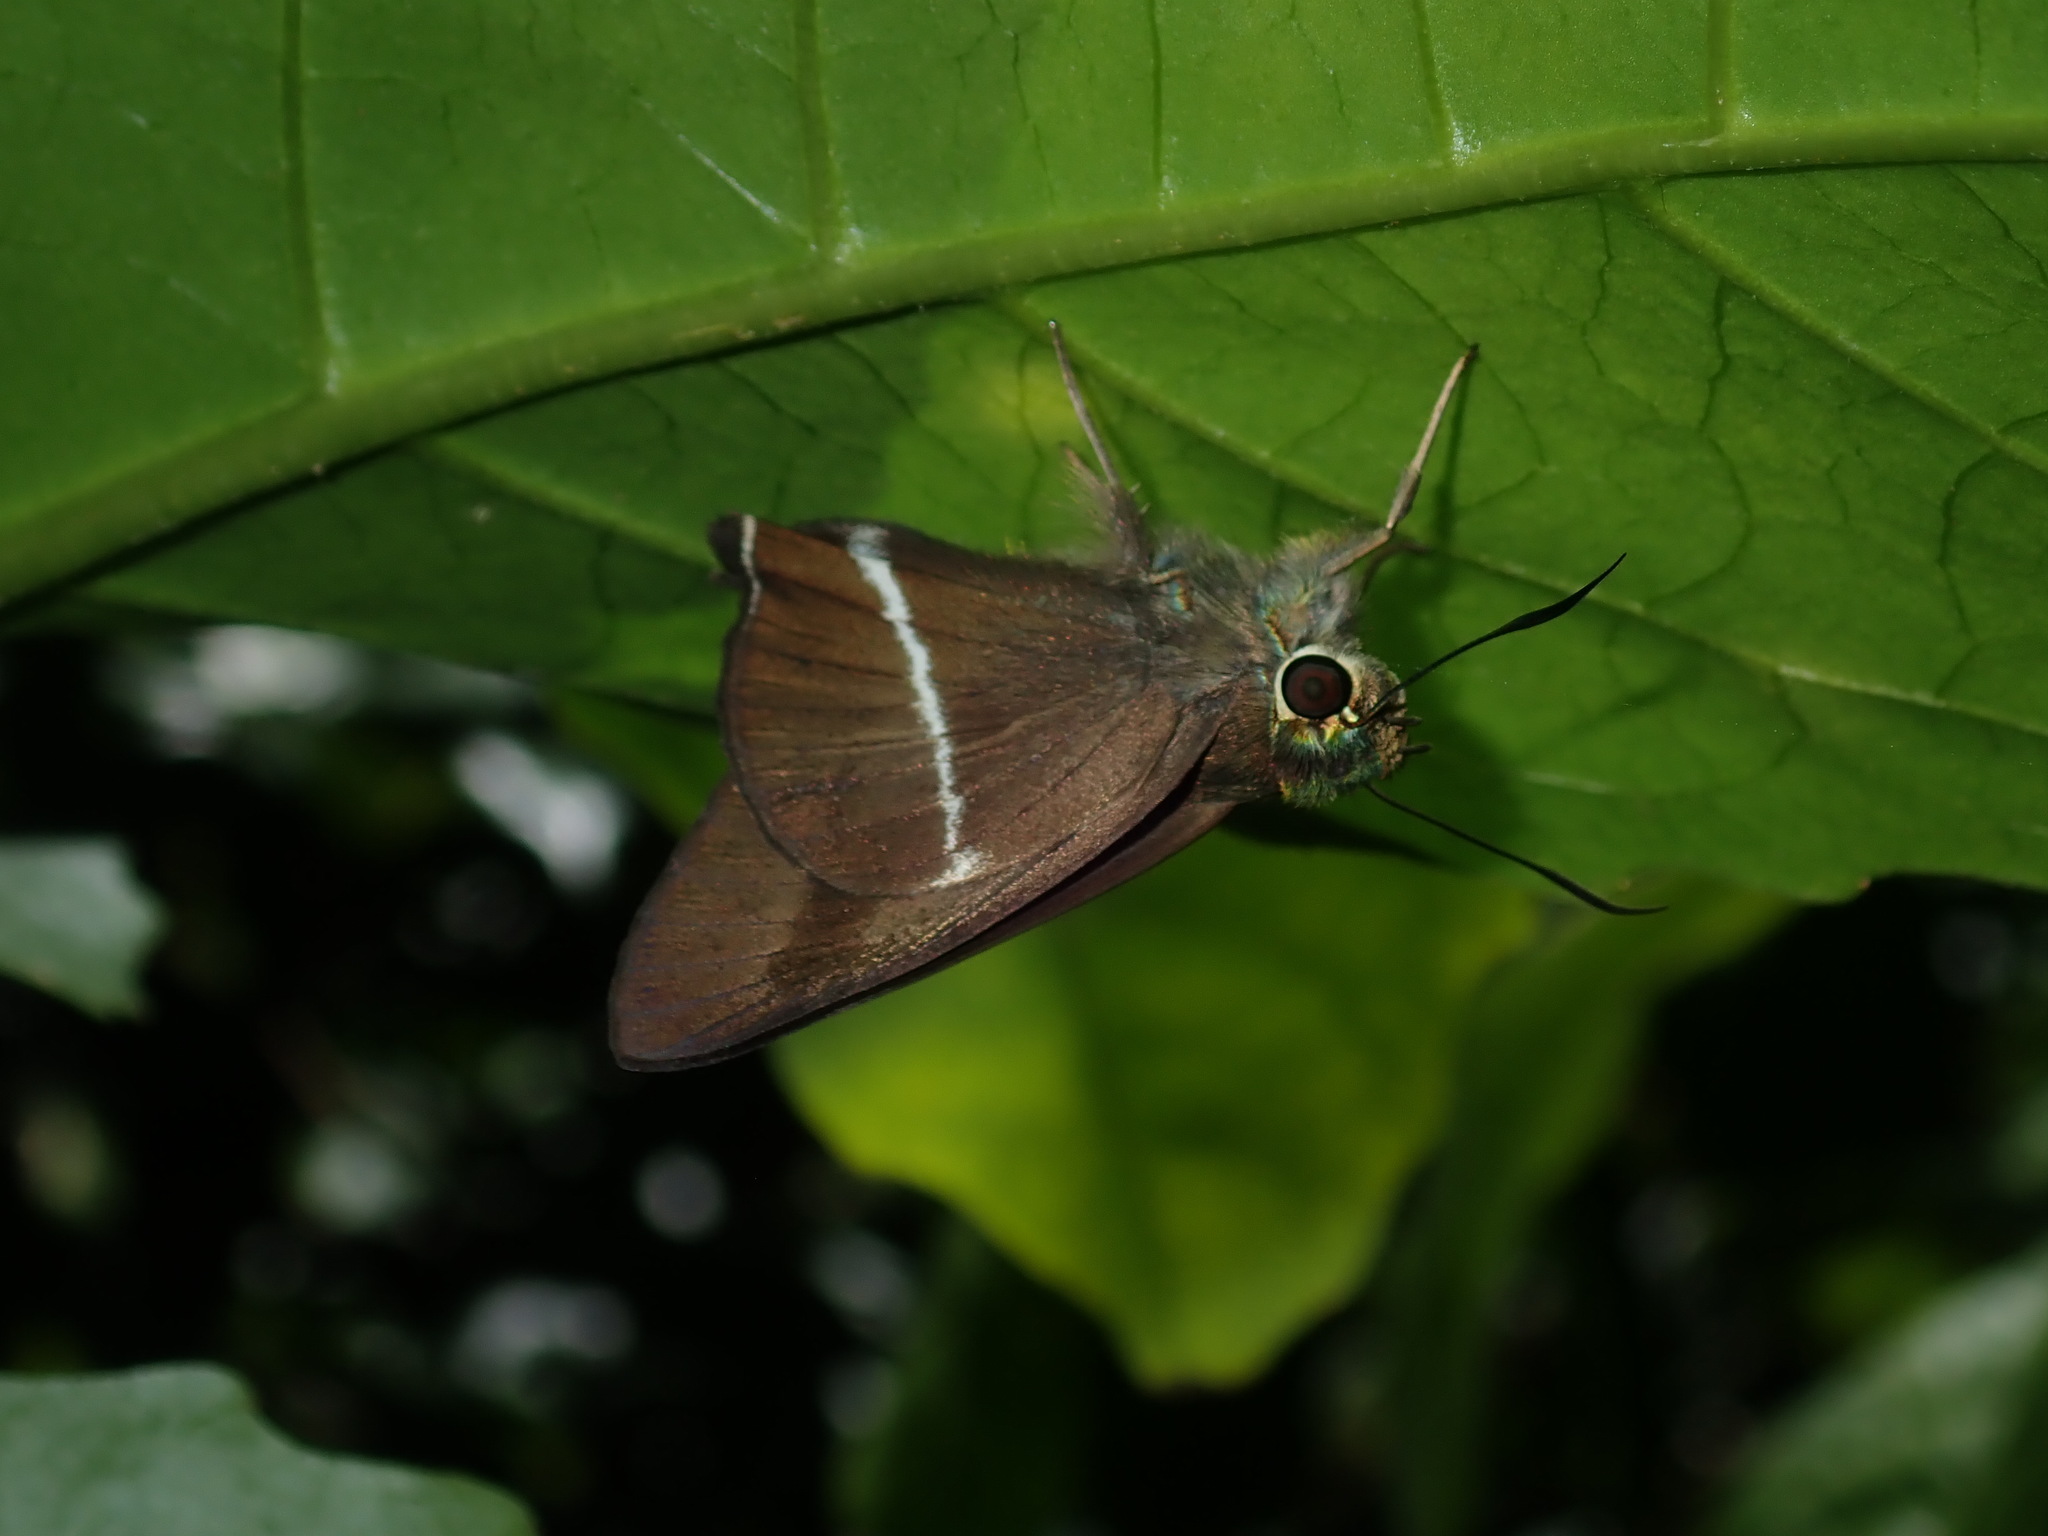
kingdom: Animalia
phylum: Arthropoda
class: Insecta
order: Lepidoptera
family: Hesperiidae
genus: Hasora
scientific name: Hasora khoda
